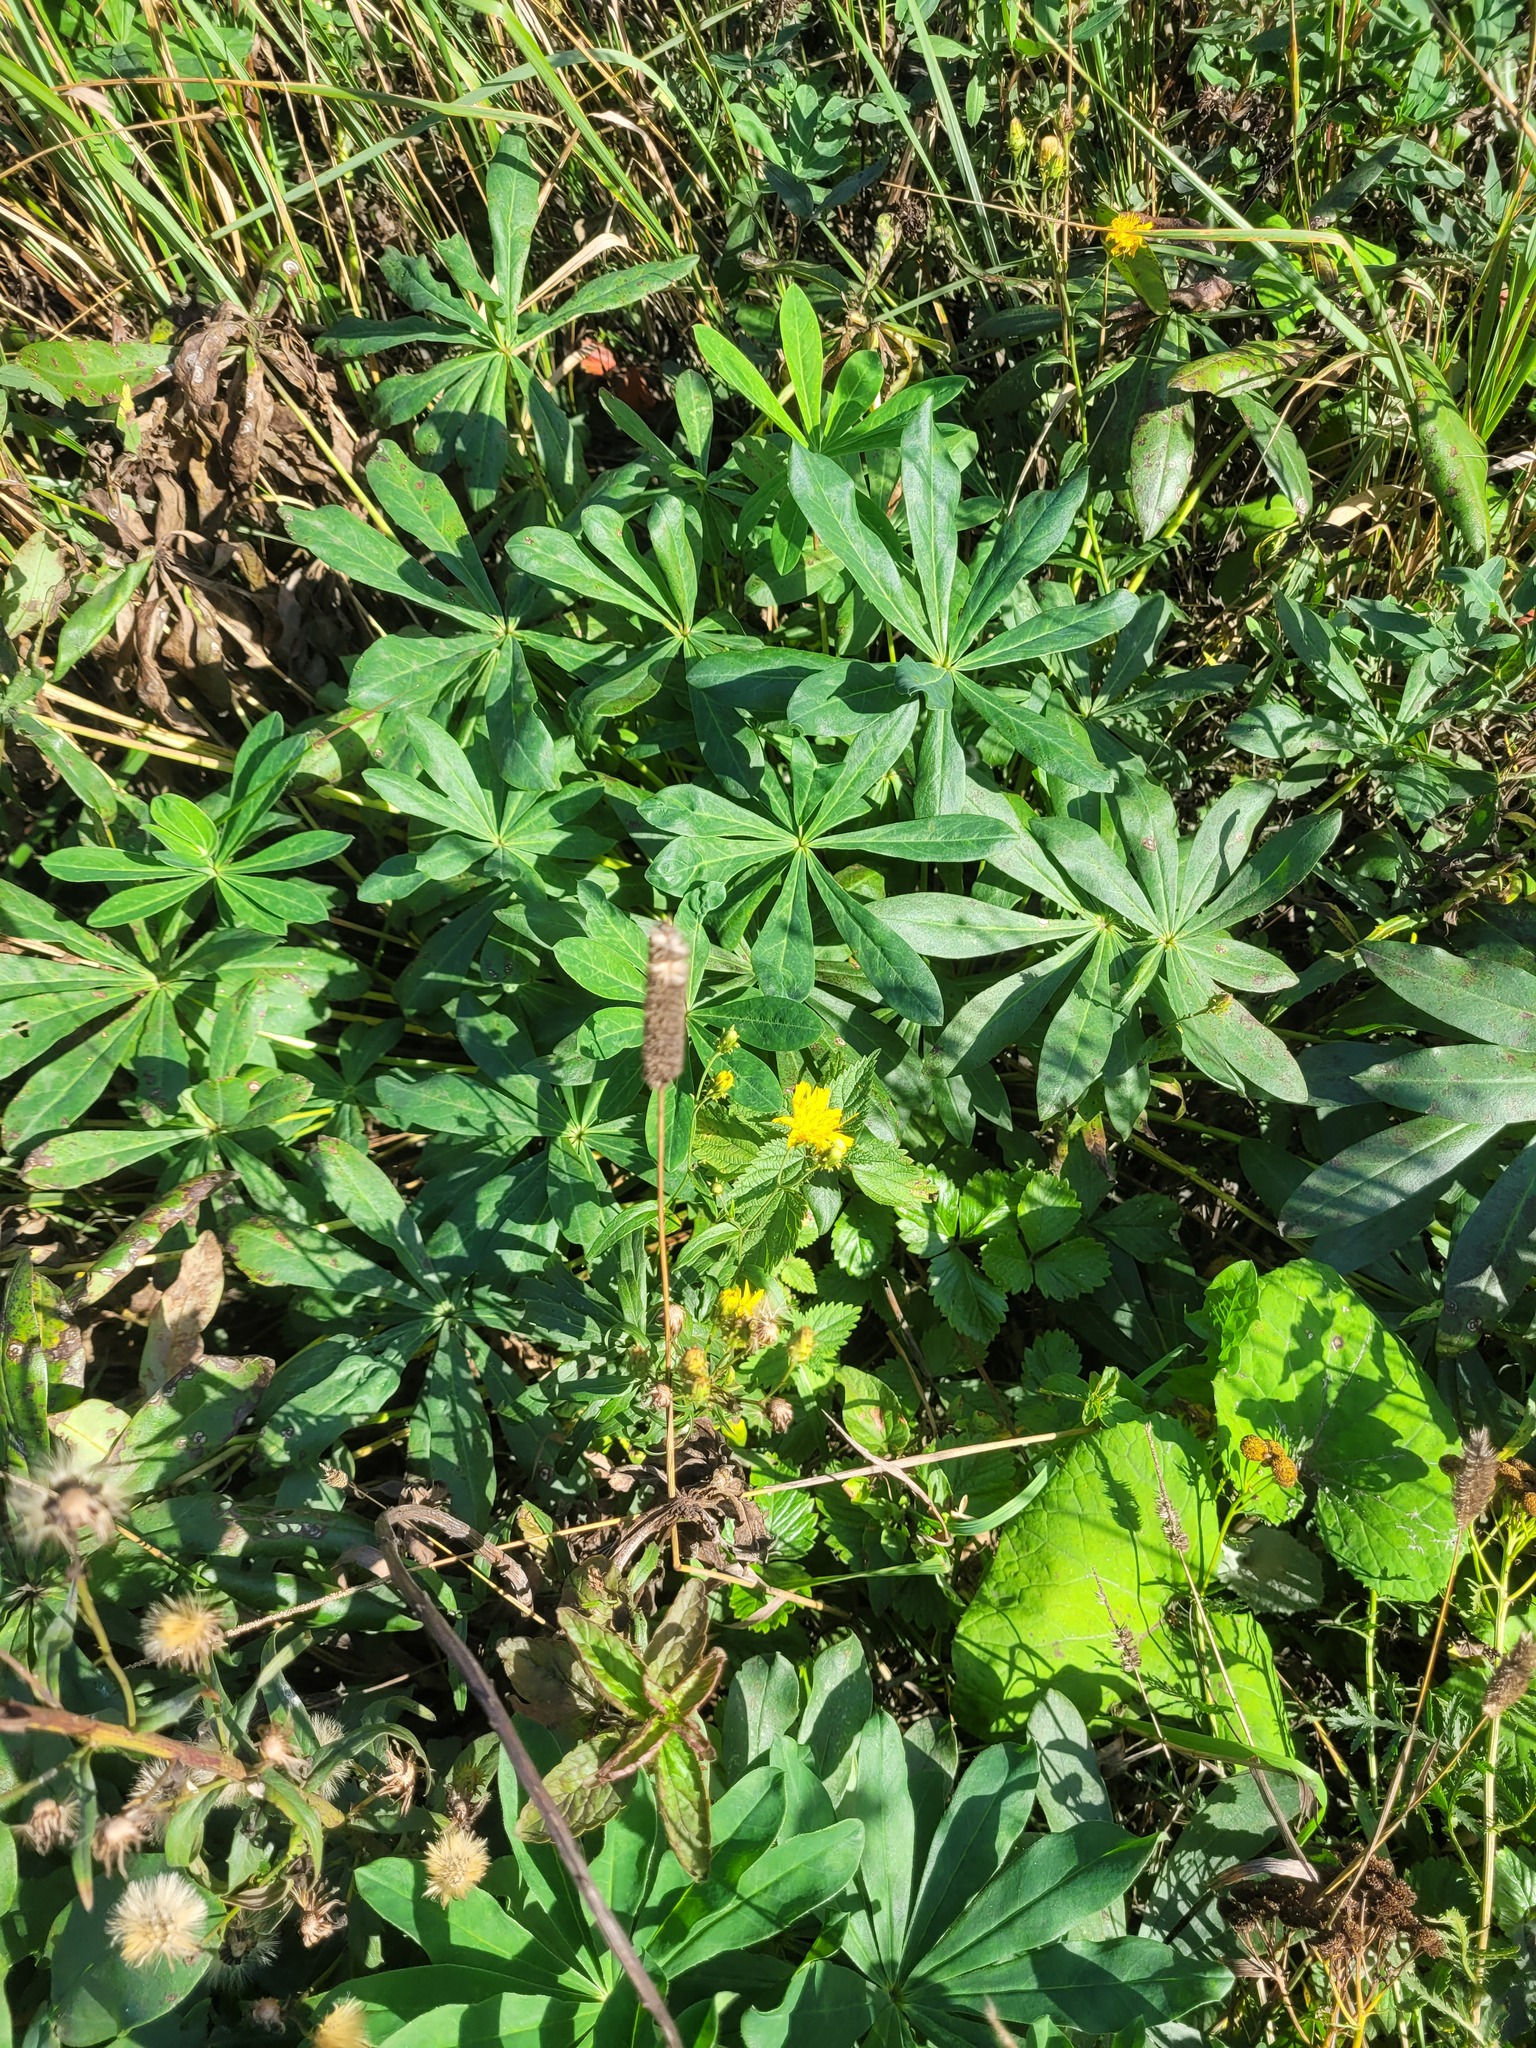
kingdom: Plantae
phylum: Tracheophyta
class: Liliopsida
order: Poales
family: Poaceae
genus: Phleum
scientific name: Phleum pratense
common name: Timothy grass
